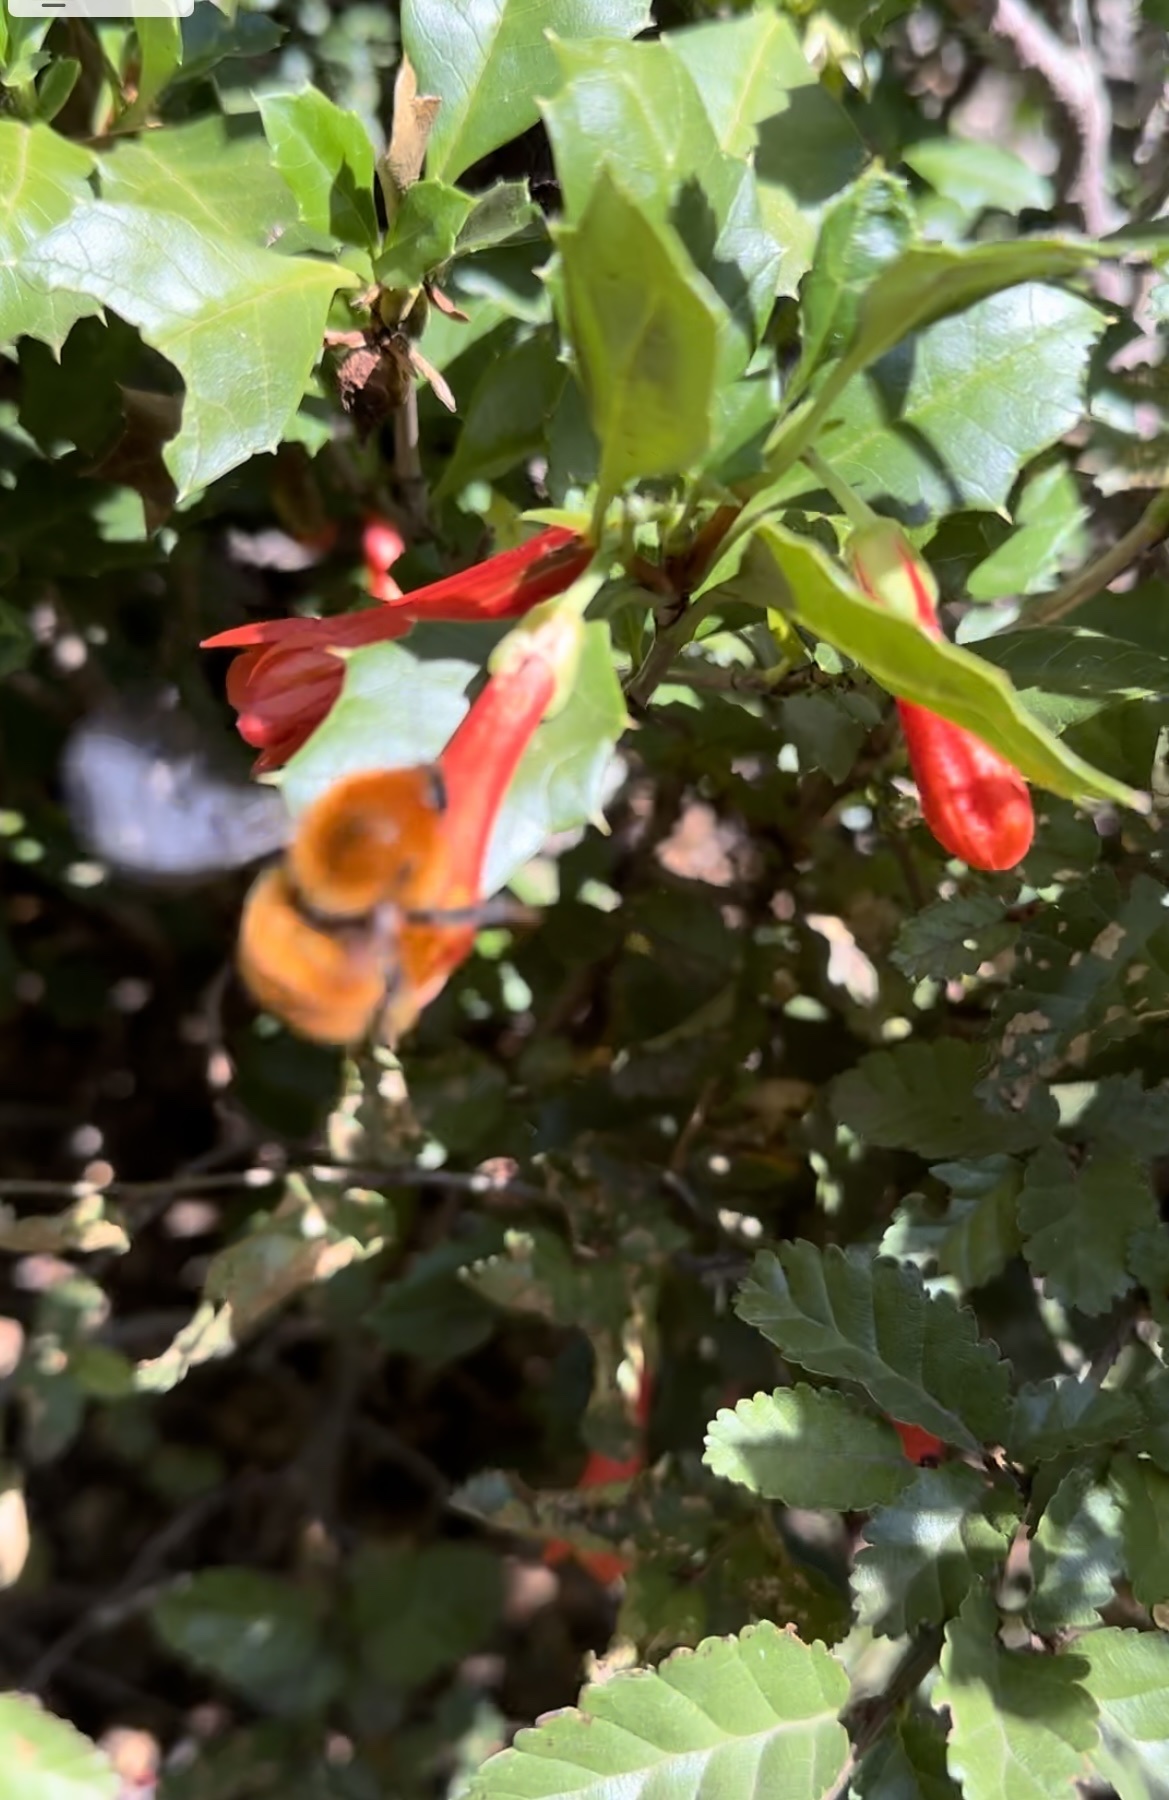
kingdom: Animalia
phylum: Arthropoda
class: Insecta
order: Hymenoptera
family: Apidae
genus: Bombus
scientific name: Bombus dahlbomii
